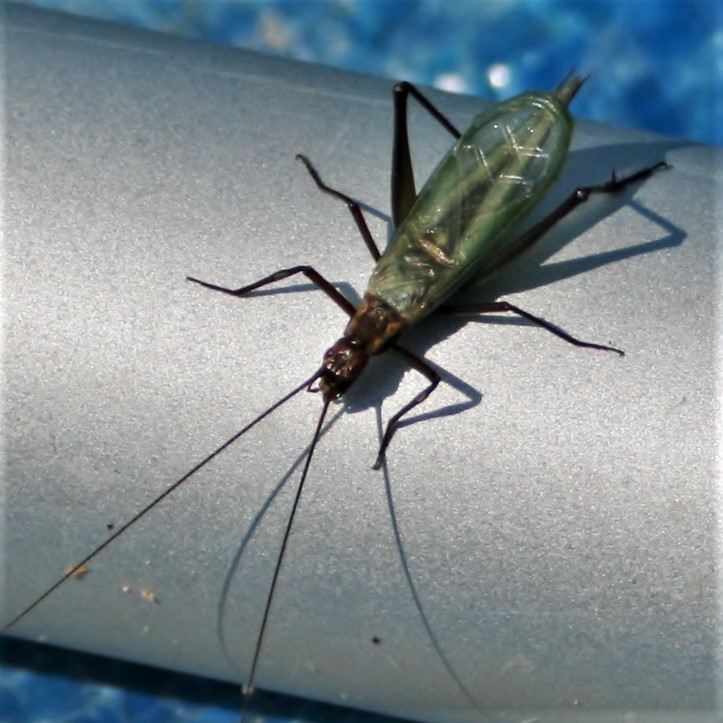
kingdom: Animalia
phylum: Arthropoda
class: Insecta
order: Orthoptera
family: Gryllidae
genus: Oecanthus
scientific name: Oecanthus laricis
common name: Laricis tree cricket
